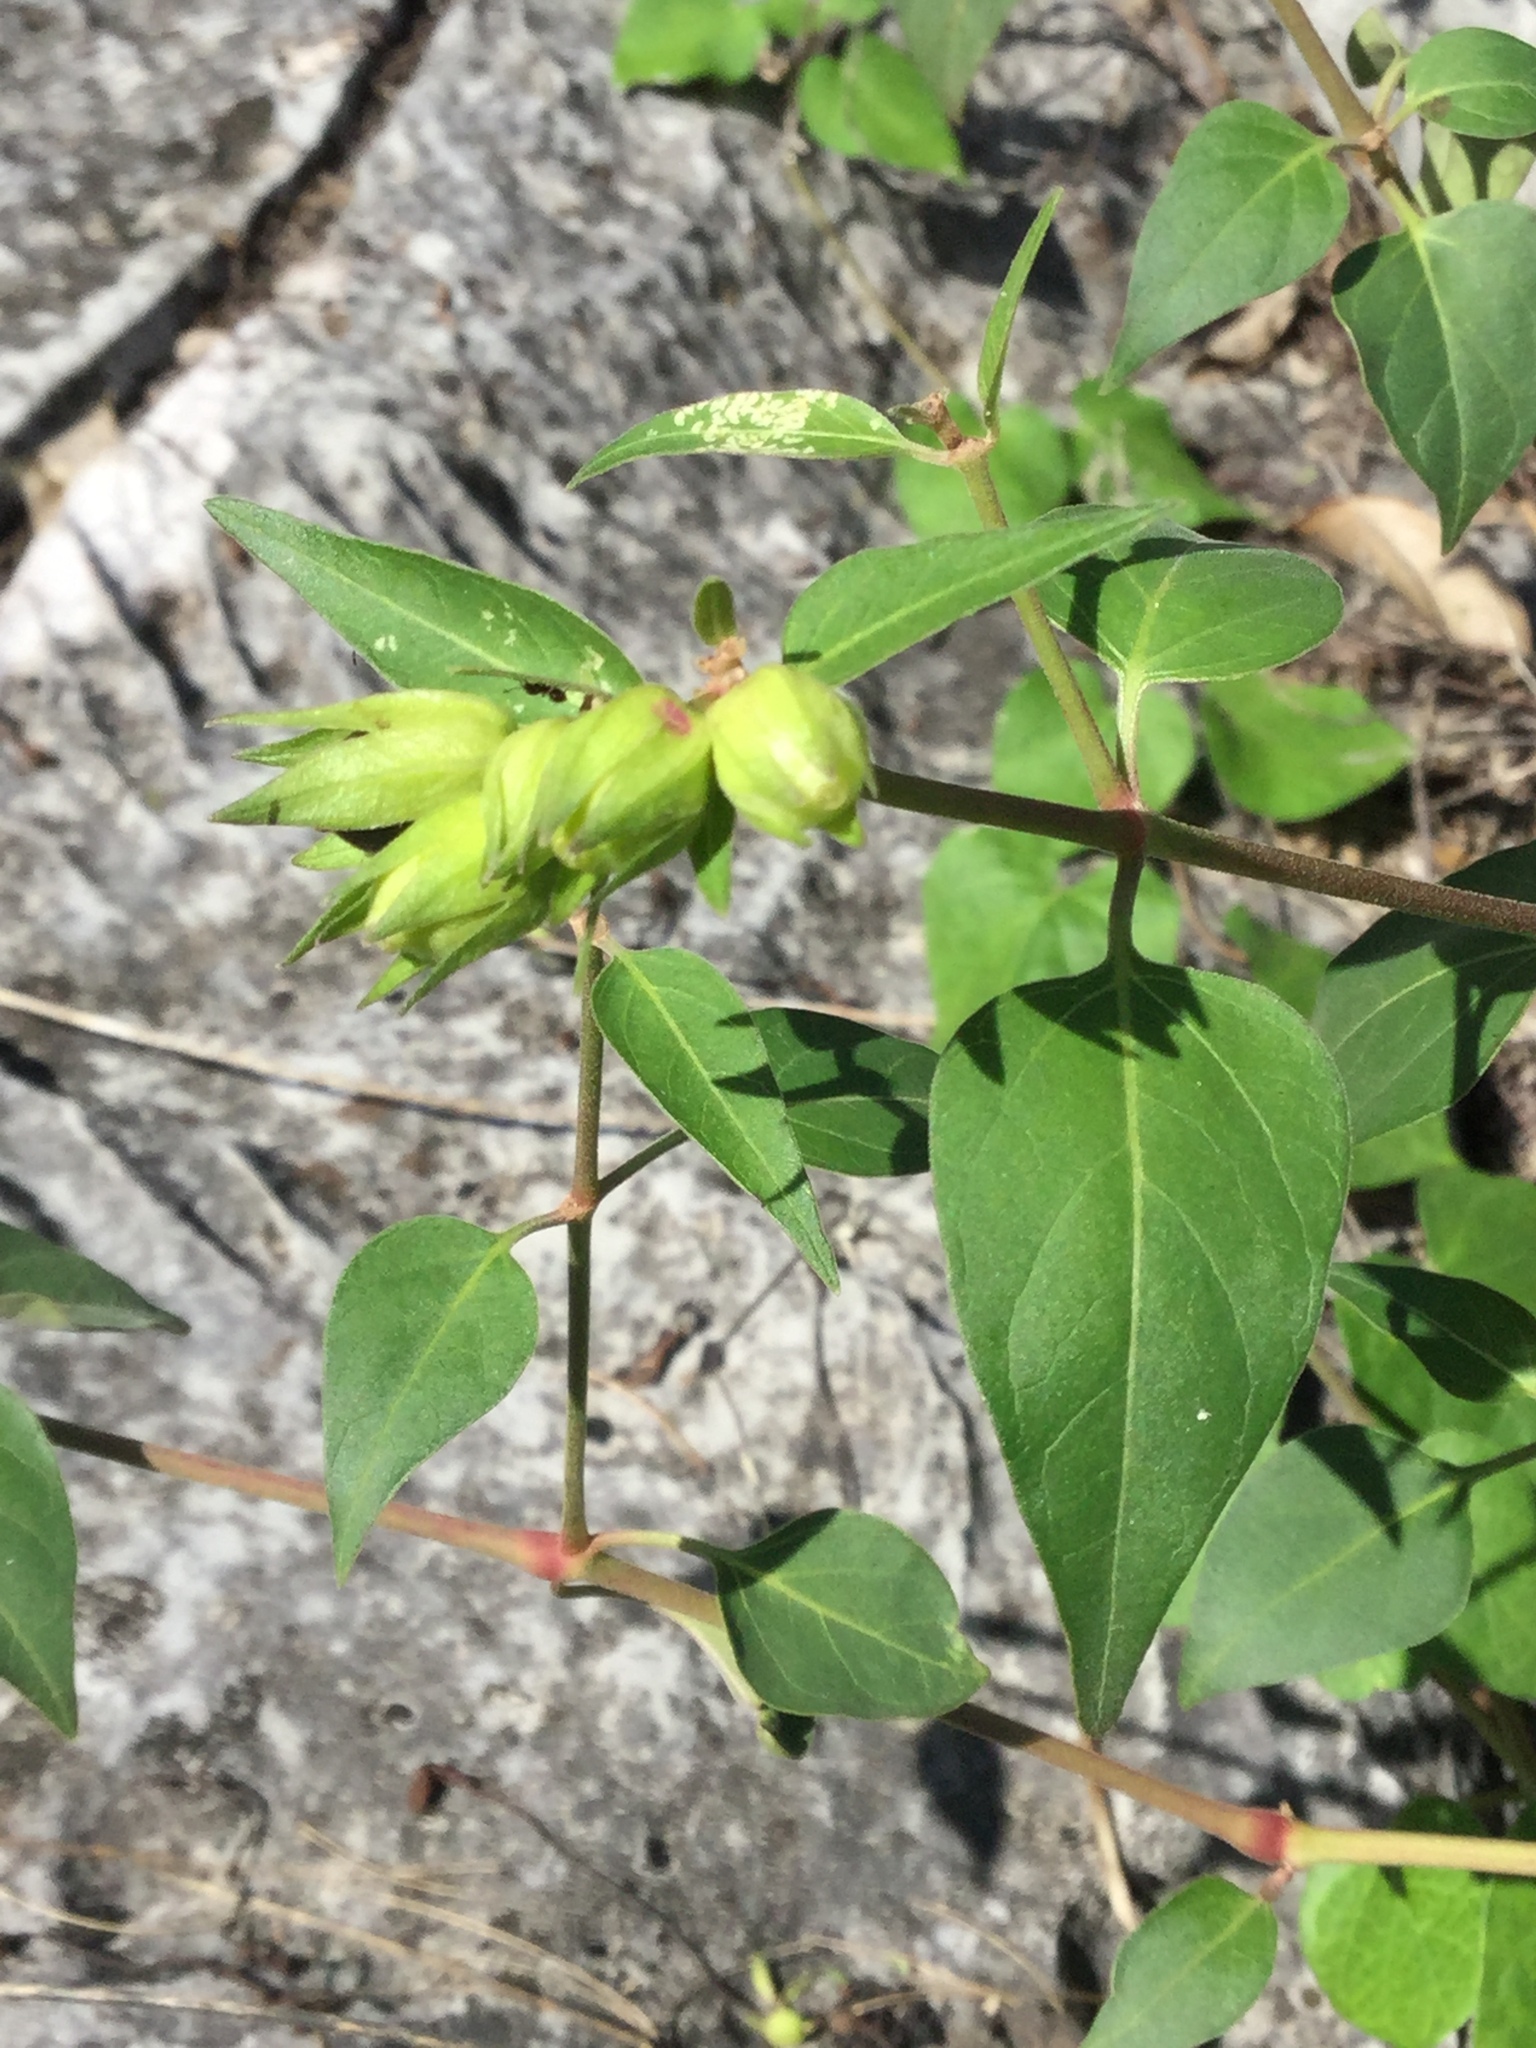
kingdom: Plantae
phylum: Tracheophyta
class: Magnoliopsida
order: Caryophyllales
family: Nyctaginaceae
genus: Mirabilis
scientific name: Mirabilis longiflora
